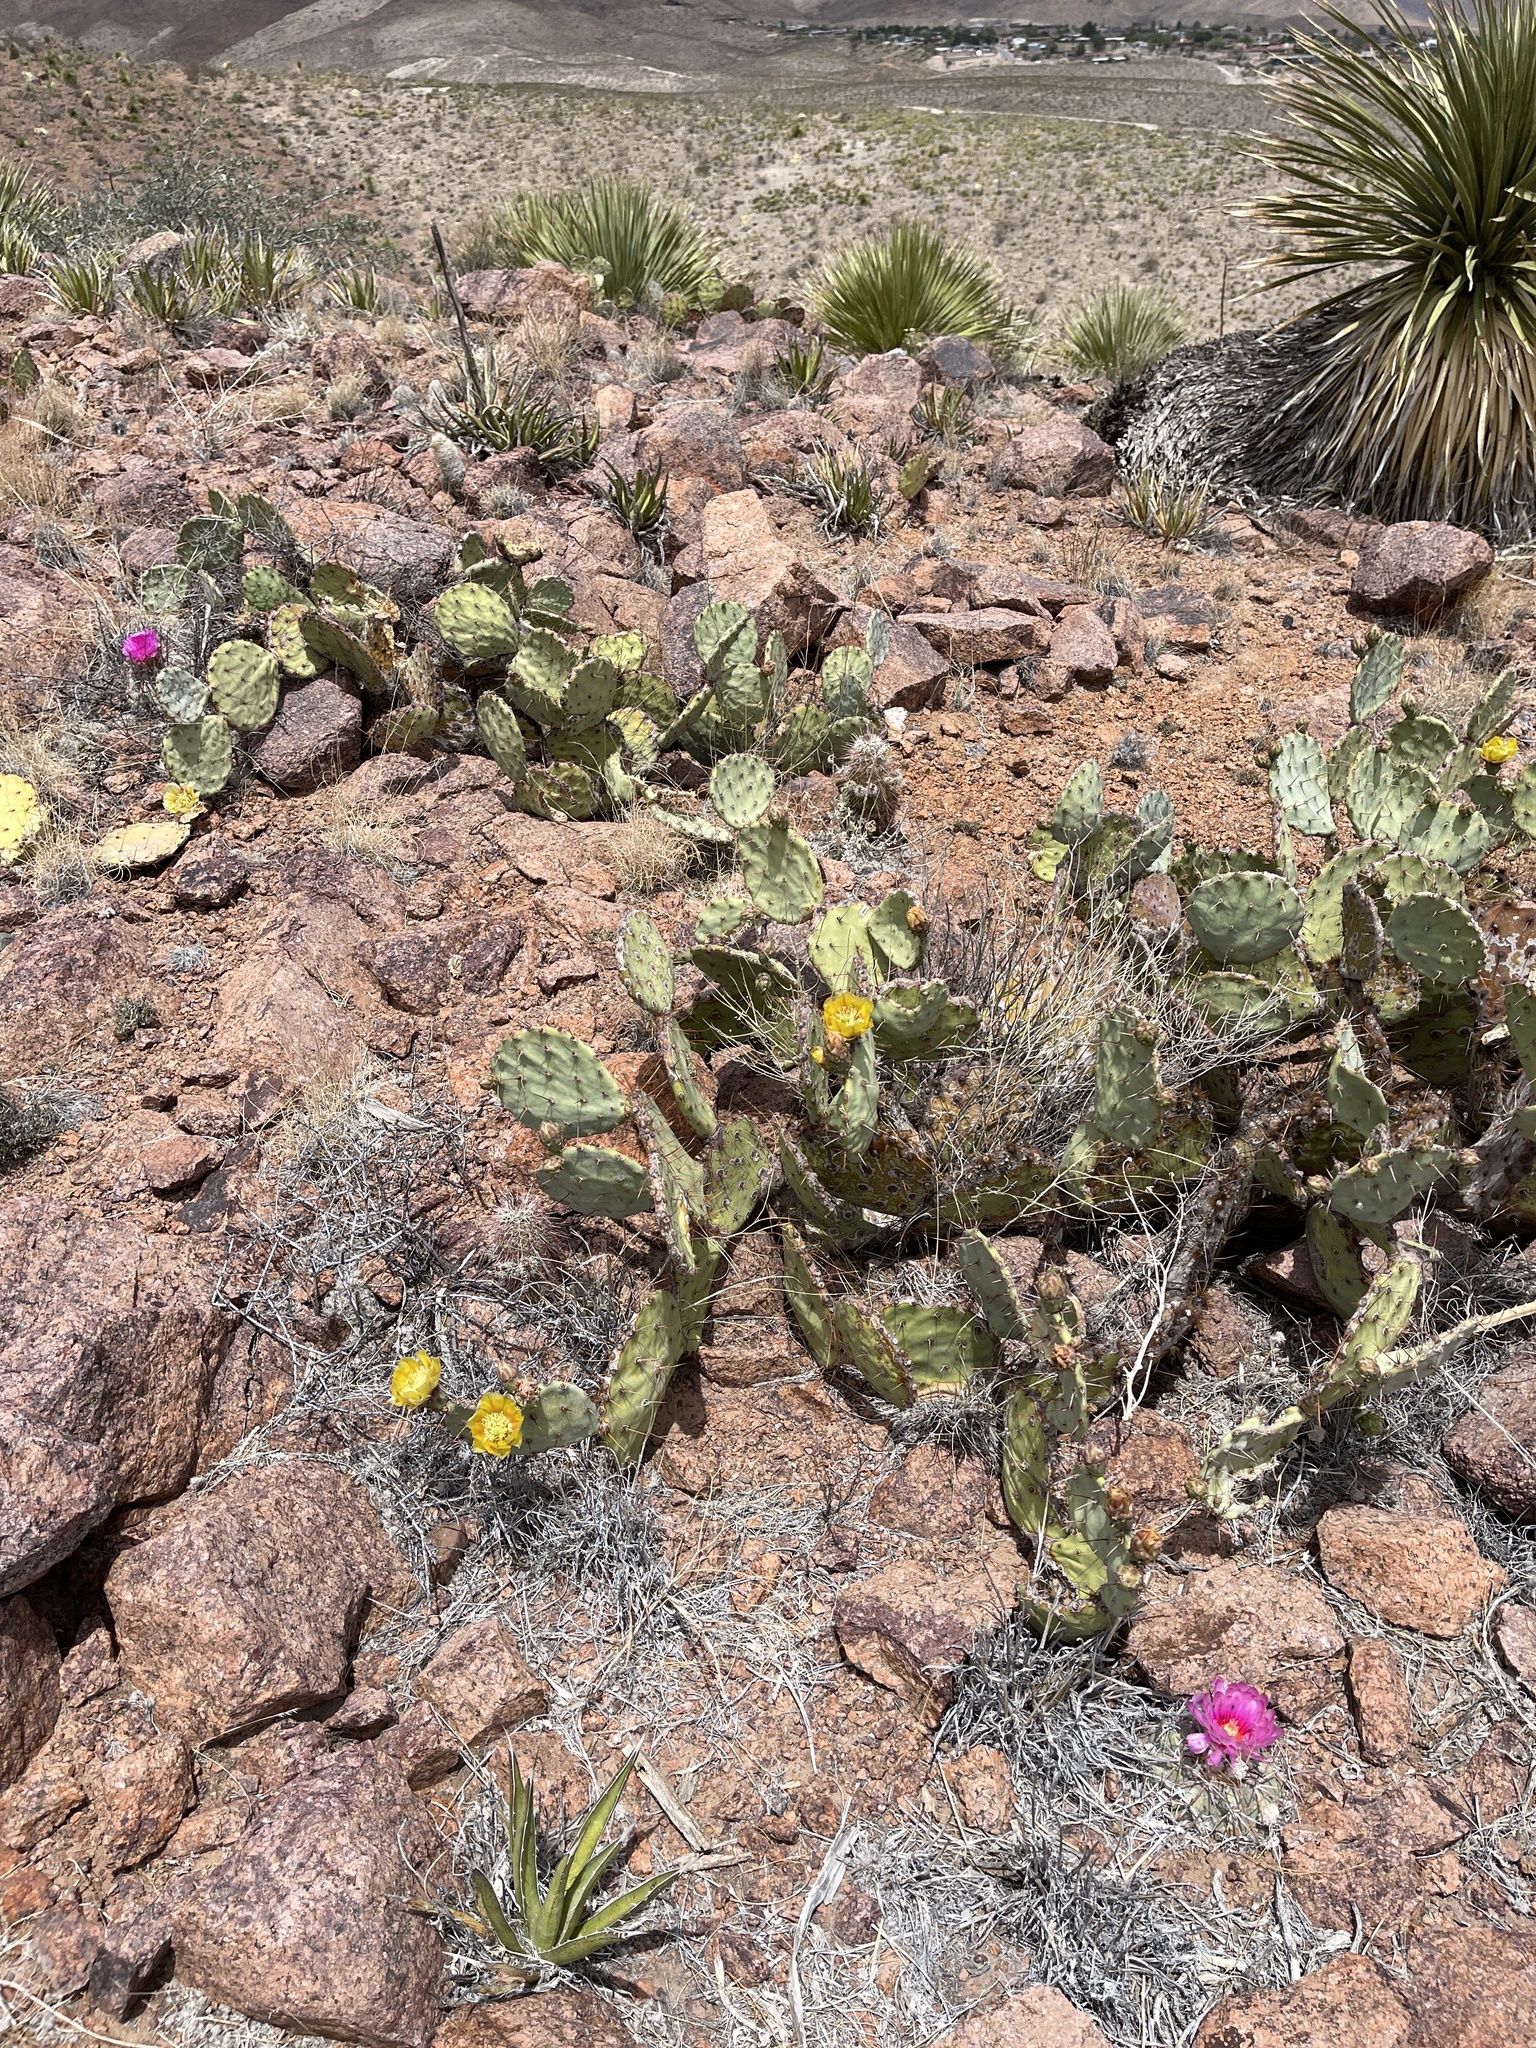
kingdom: Plantae
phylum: Tracheophyta
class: Magnoliopsida
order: Caryophyllales
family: Cactaceae
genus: Opuntia
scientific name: Opuntia phaeacantha
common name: New mexico prickly-pear
